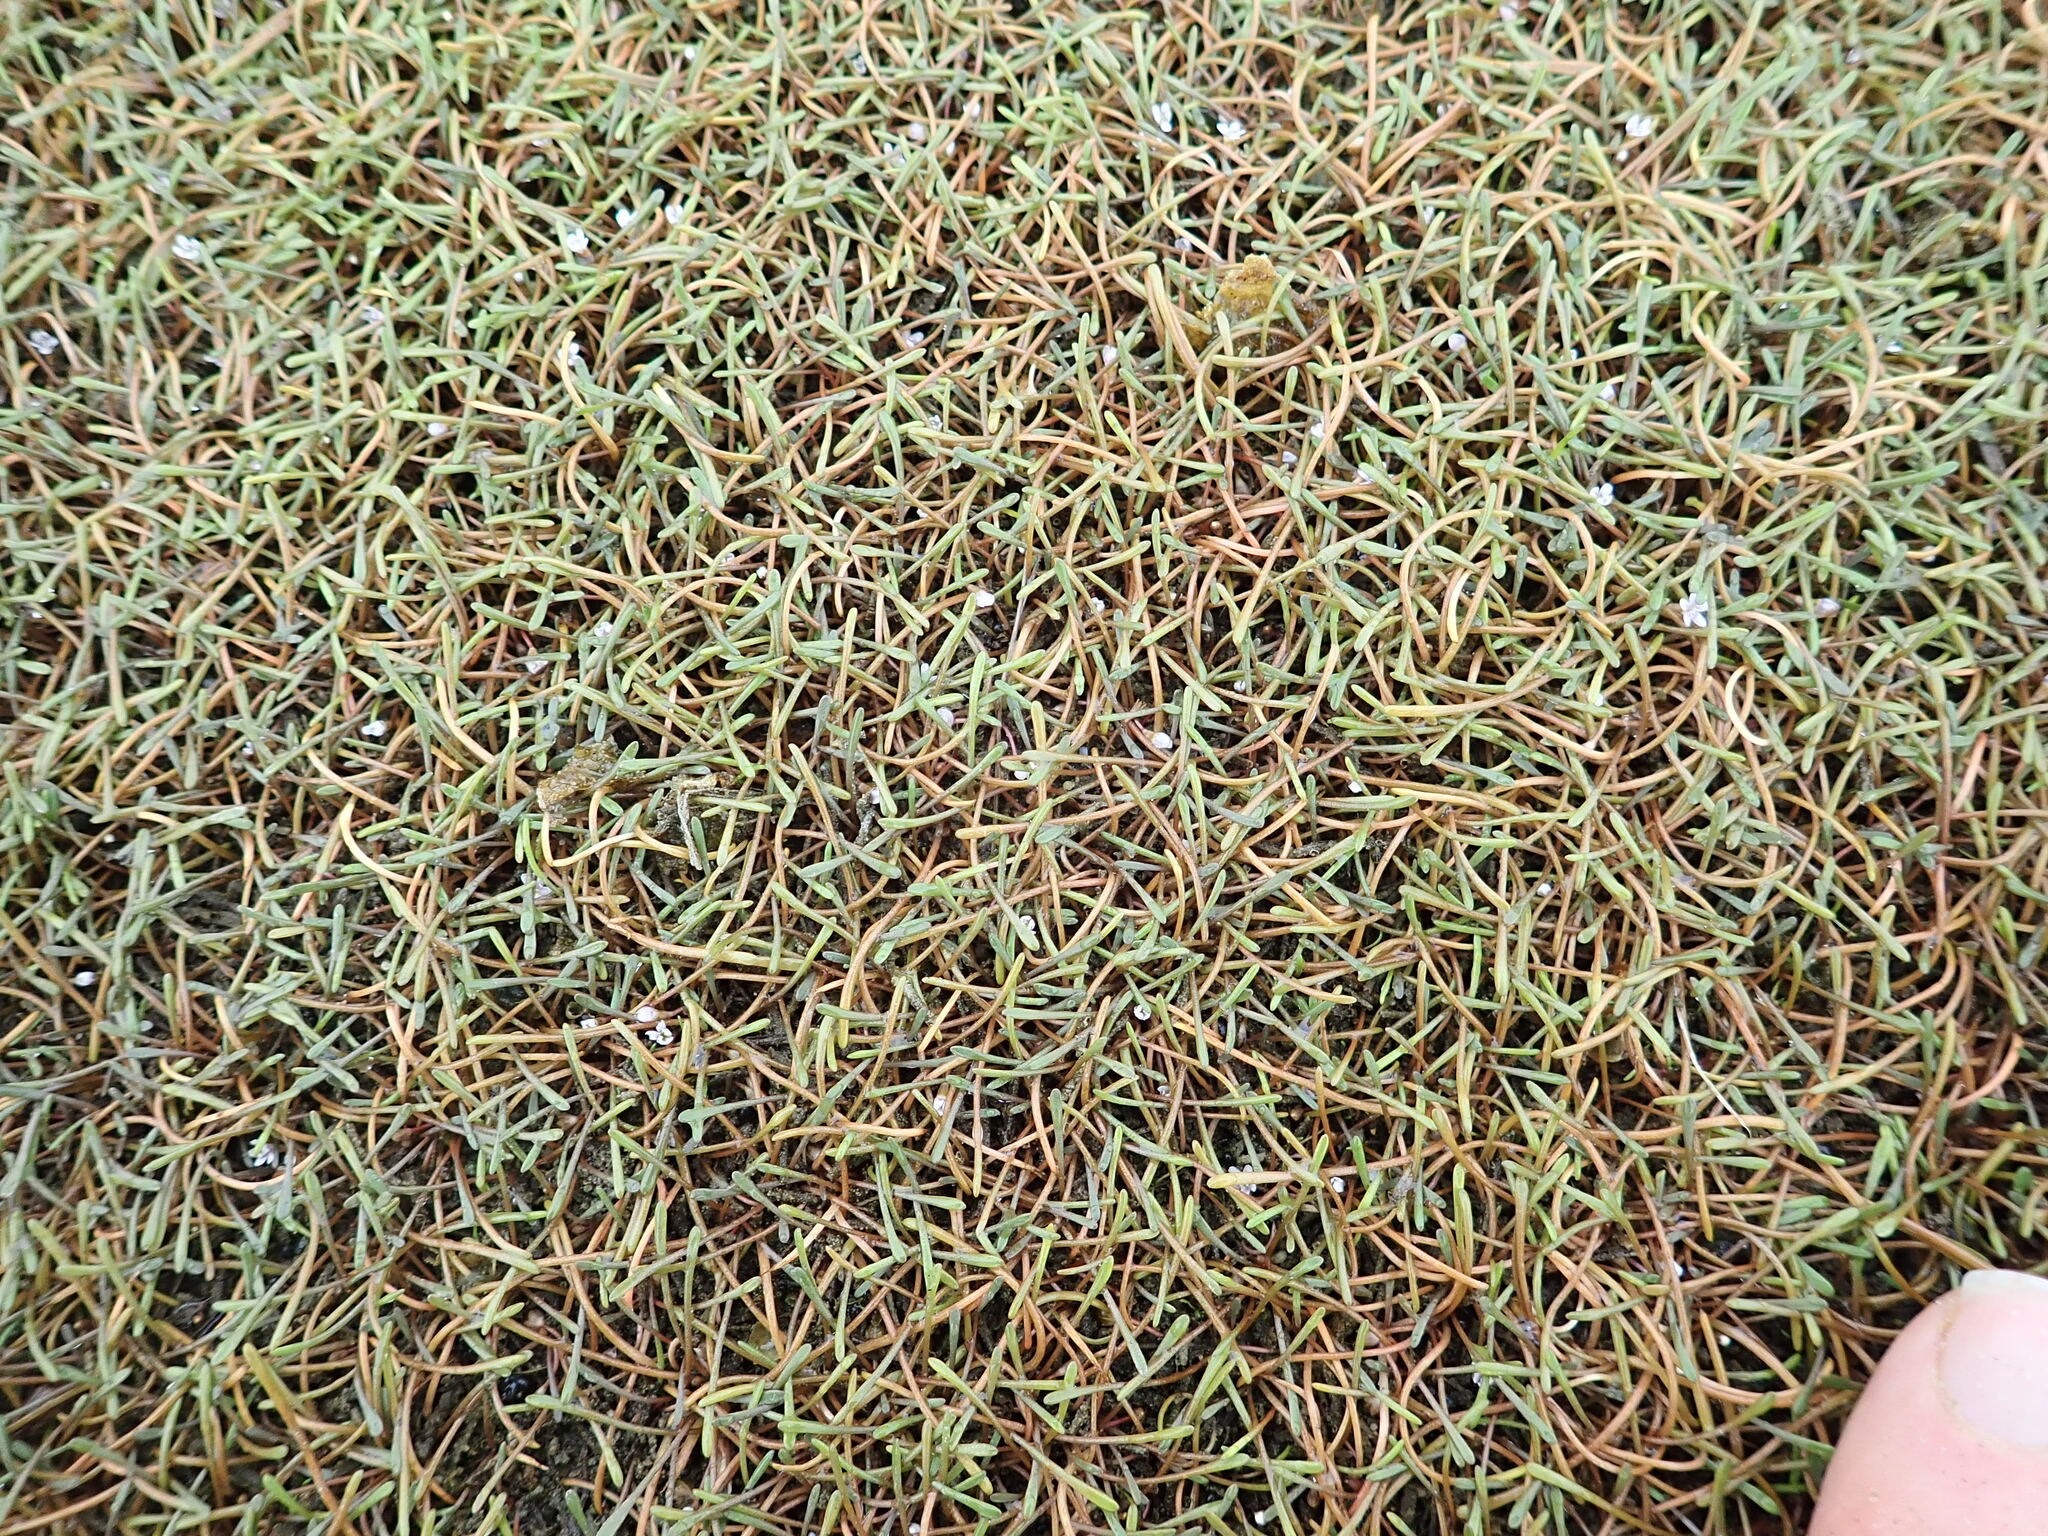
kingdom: Plantae
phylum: Tracheophyta
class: Magnoliopsida
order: Lamiales
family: Scrophulariaceae
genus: Limosella
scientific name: Limosella australis
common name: Welsh mudwort
